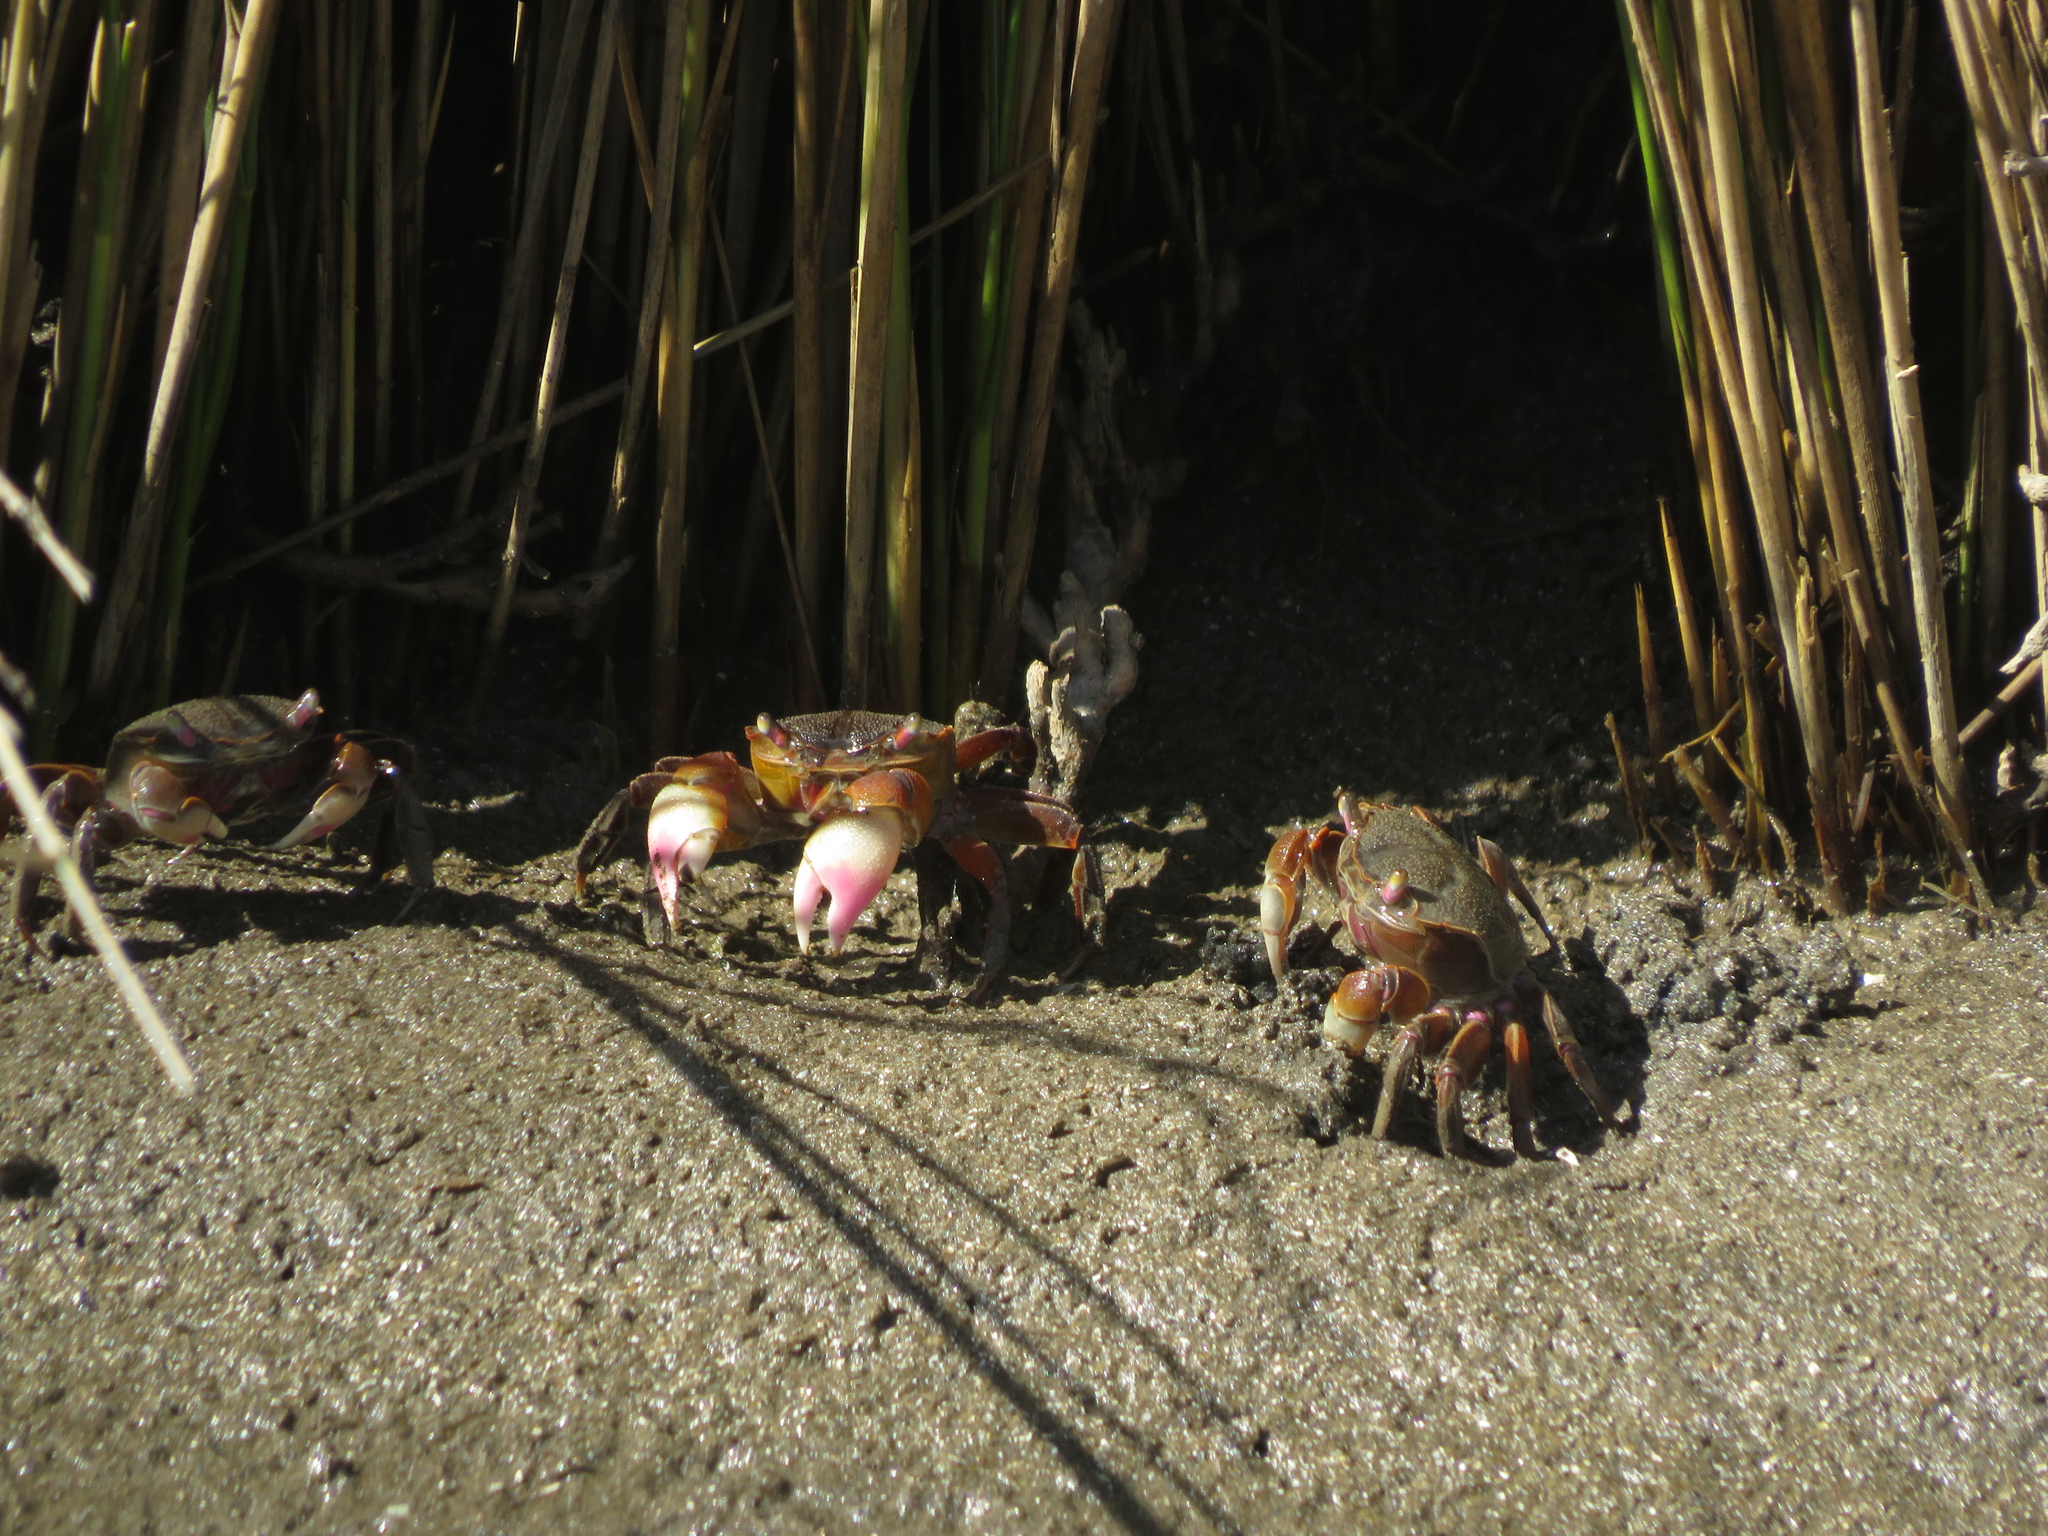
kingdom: Animalia
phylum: Arthropoda
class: Malacostraca
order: Decapoda
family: Varunidae
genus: Neohelice
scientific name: Neohelice granulata
